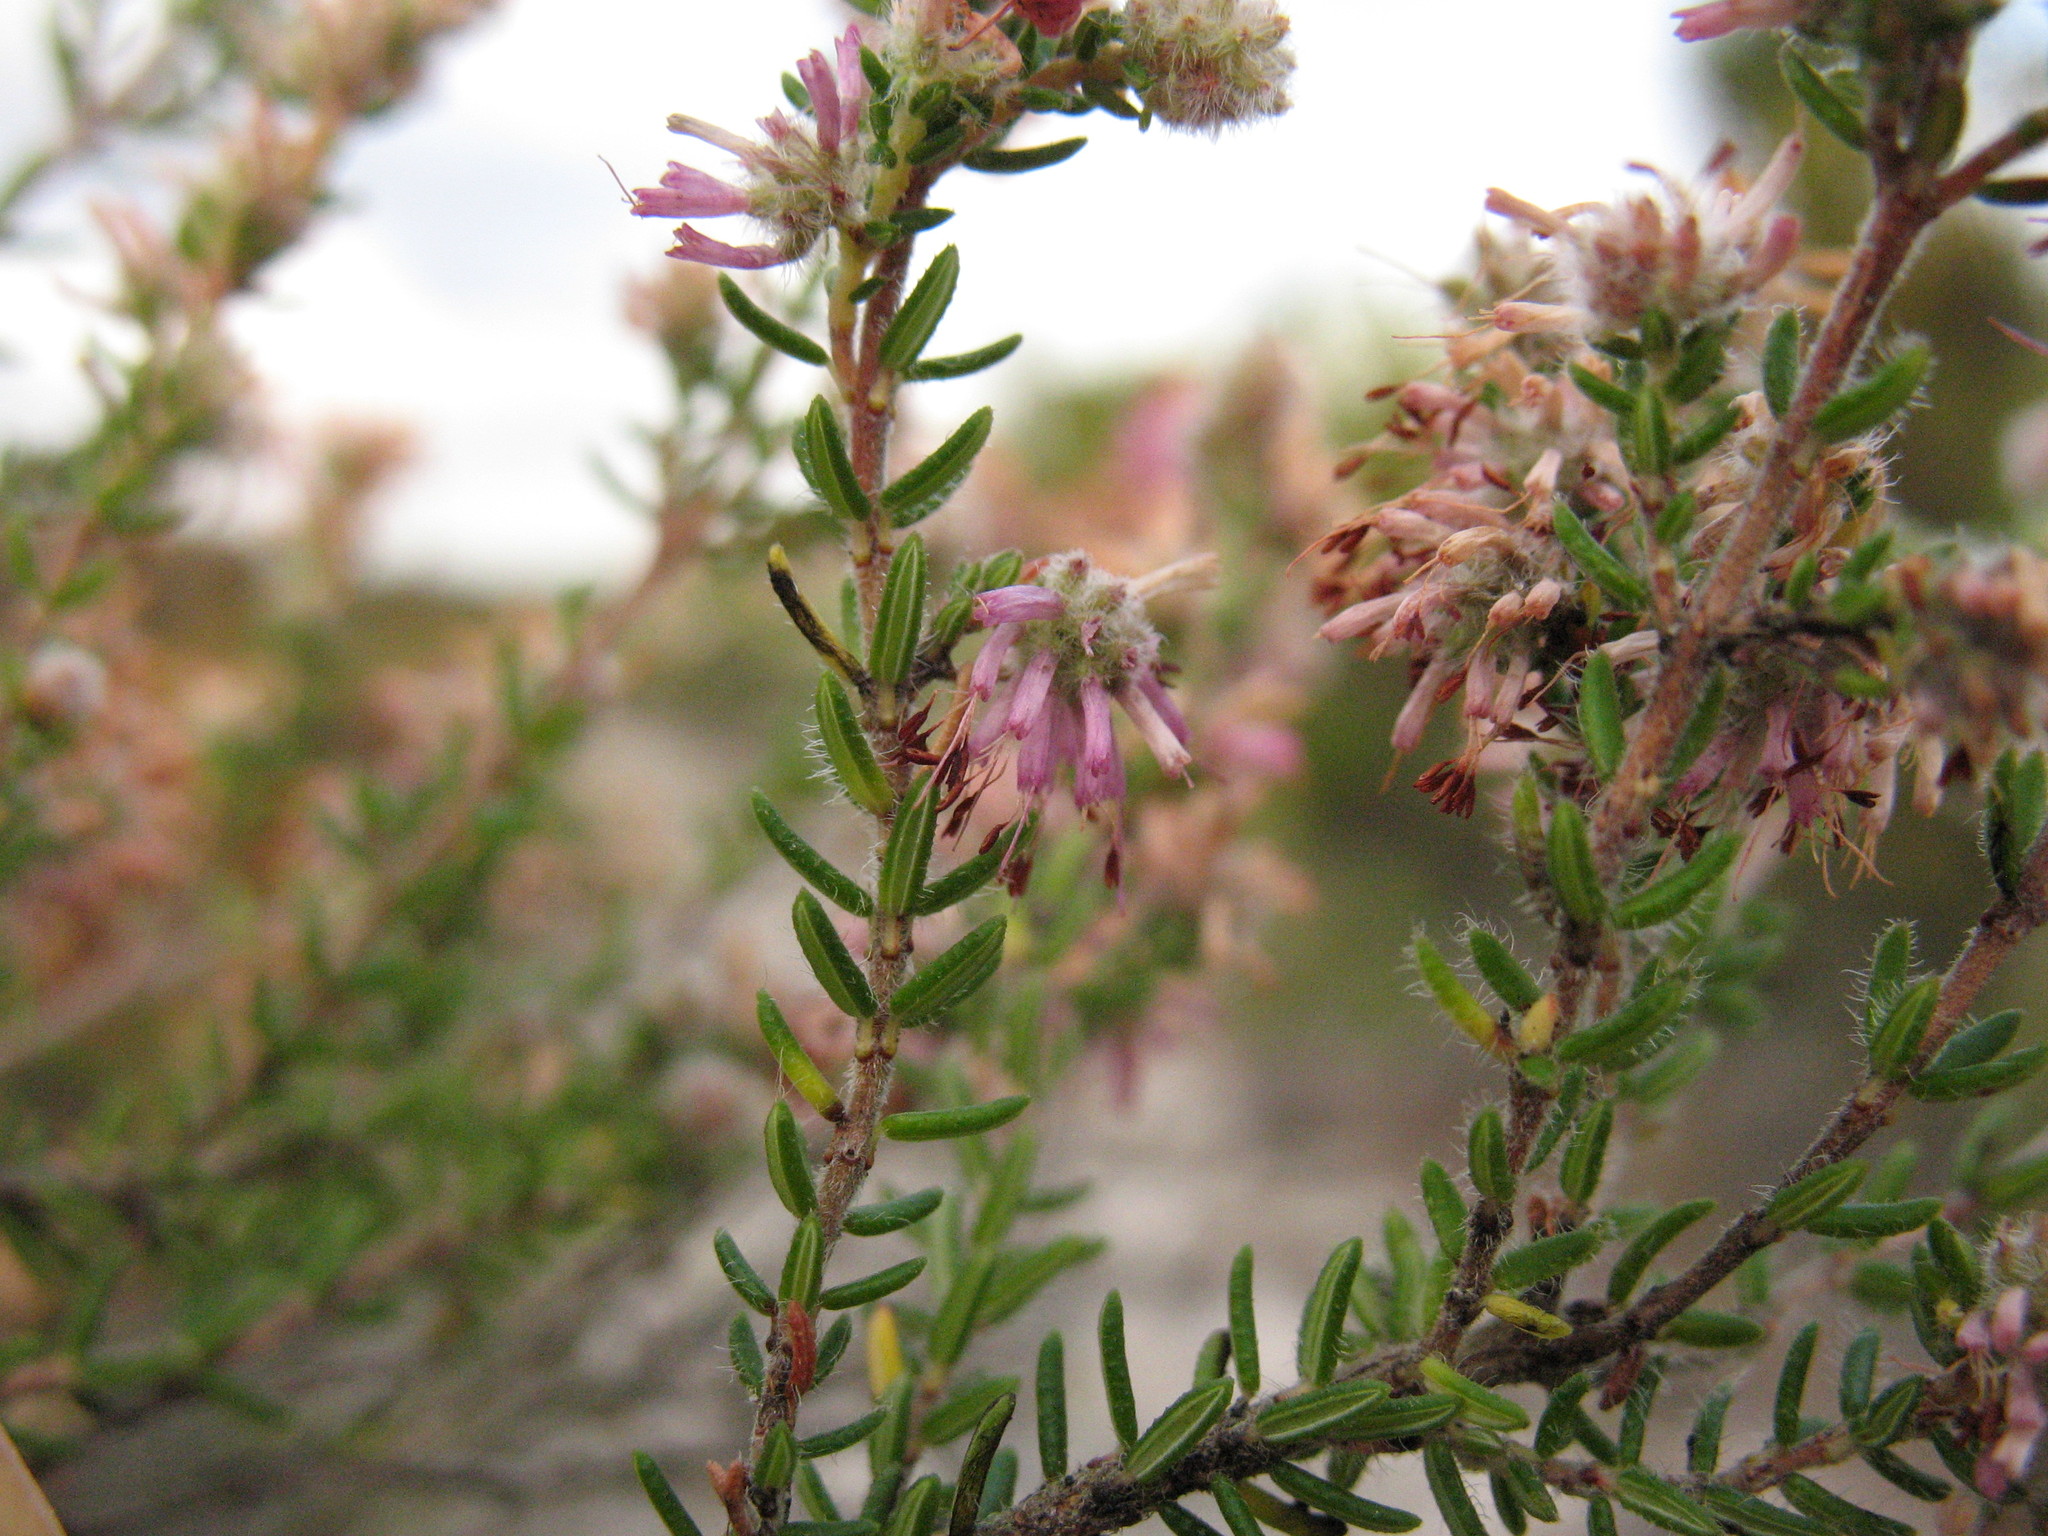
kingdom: Plantae
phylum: Tracheophyta
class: Magnoliopsida
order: Ericales
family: Ericaceae
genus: Erica
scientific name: Erica similis
